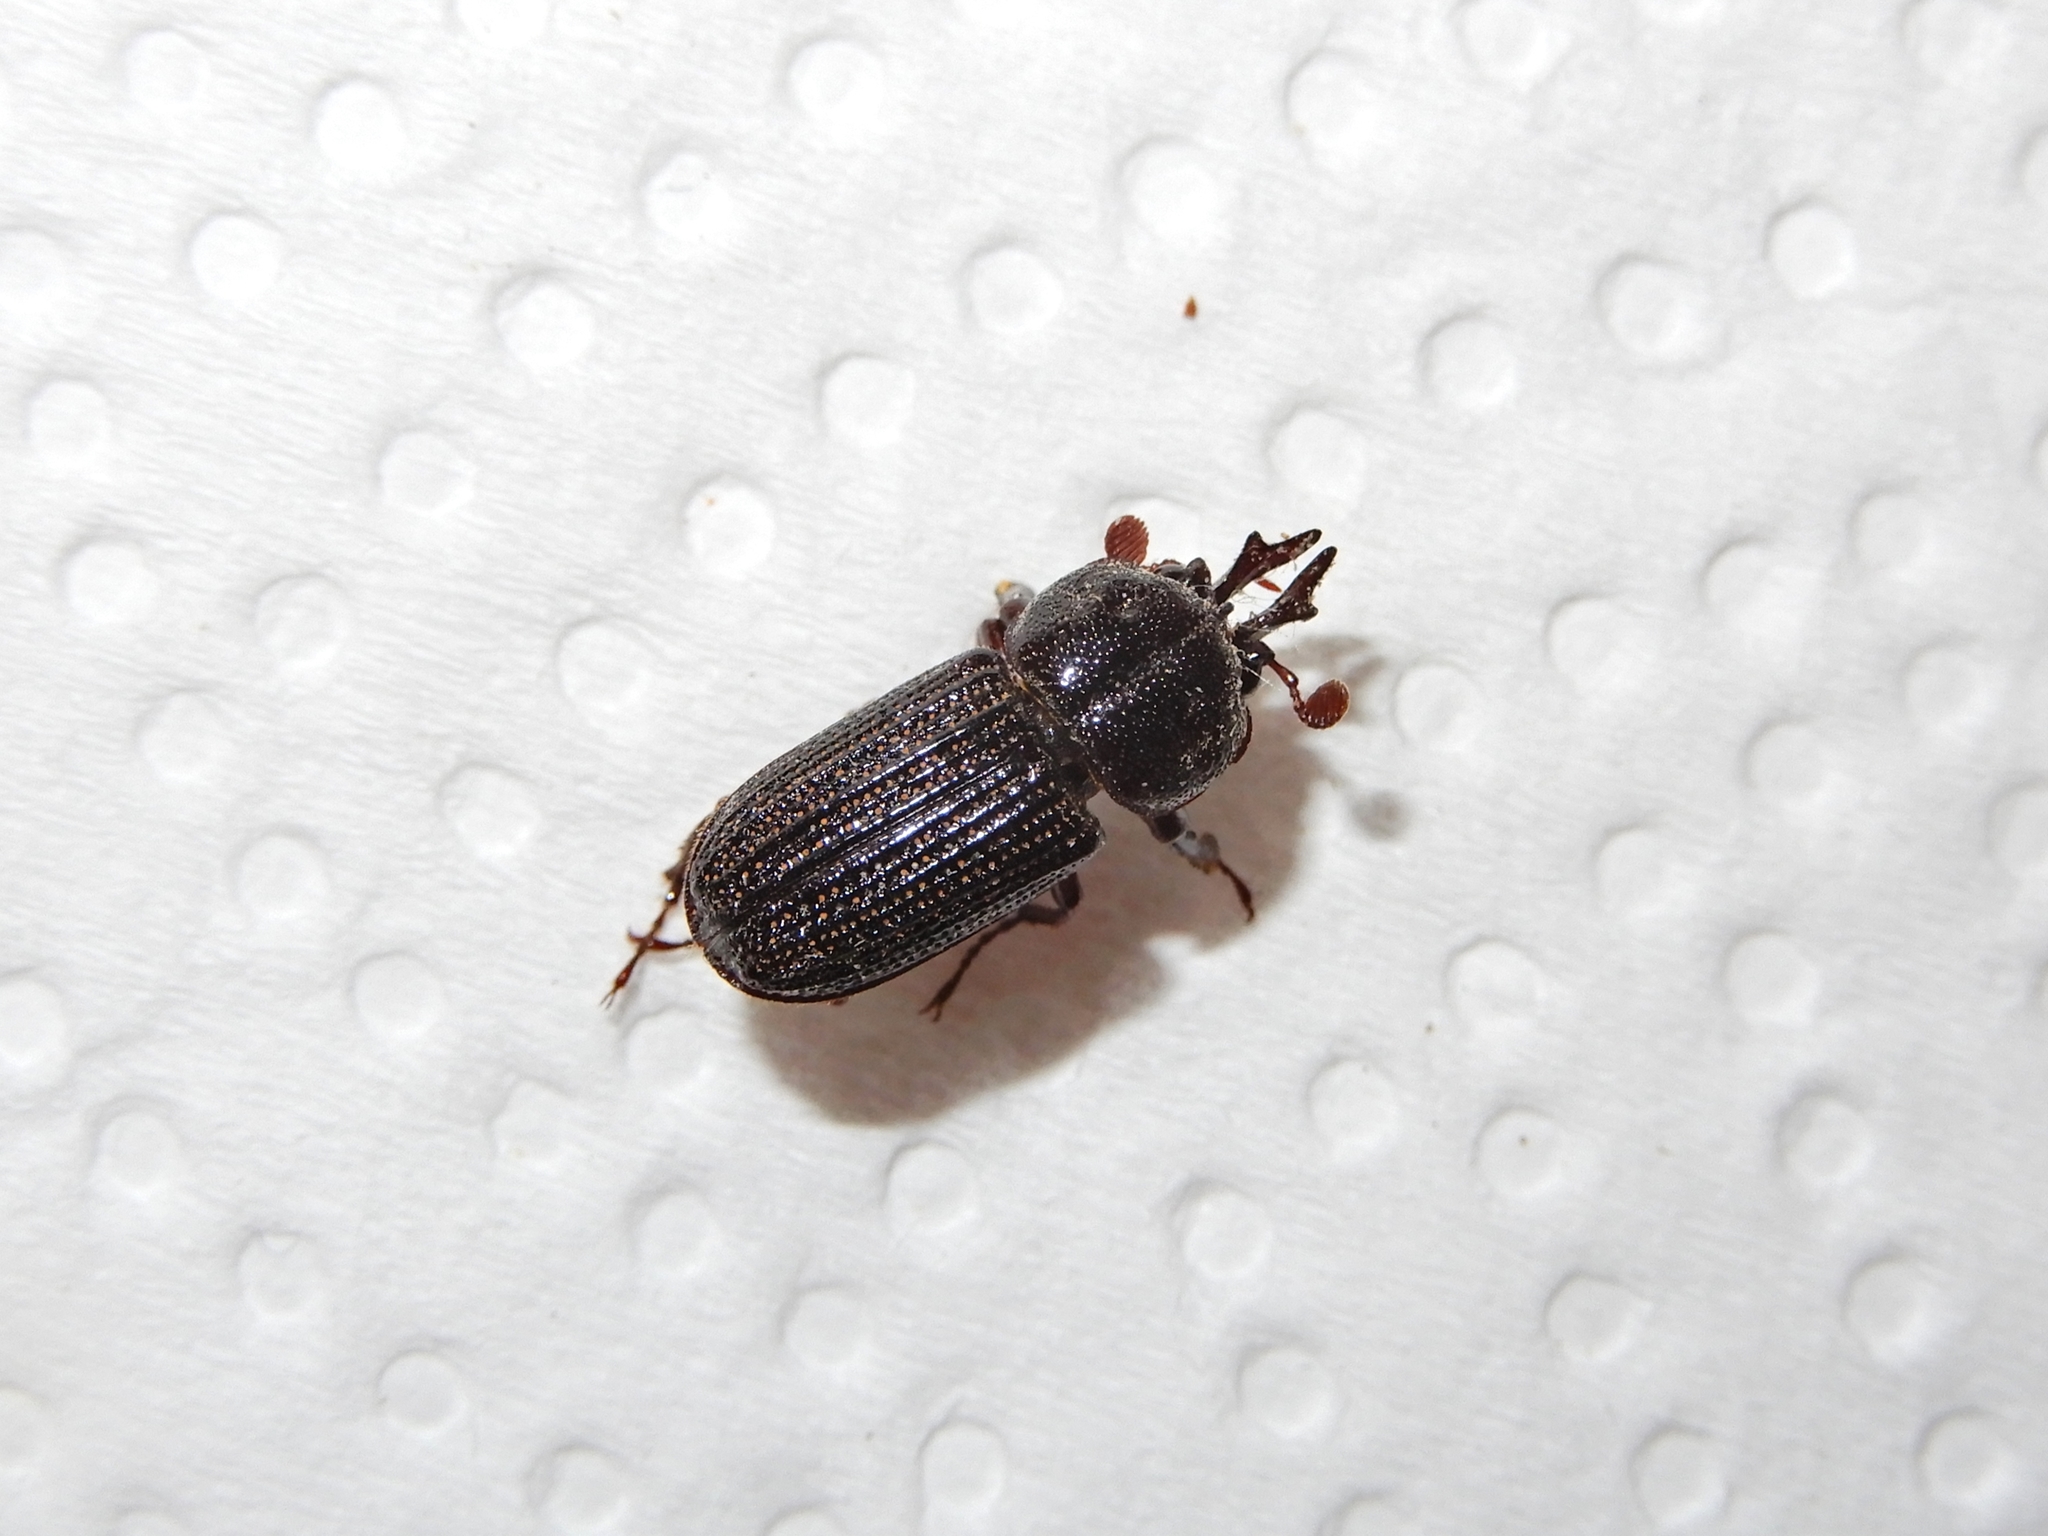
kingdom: Animalia
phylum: Arthropoda
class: Insecta
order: Coleoptera
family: Lucanidae
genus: Syndesus
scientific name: Syndesus cornutus
